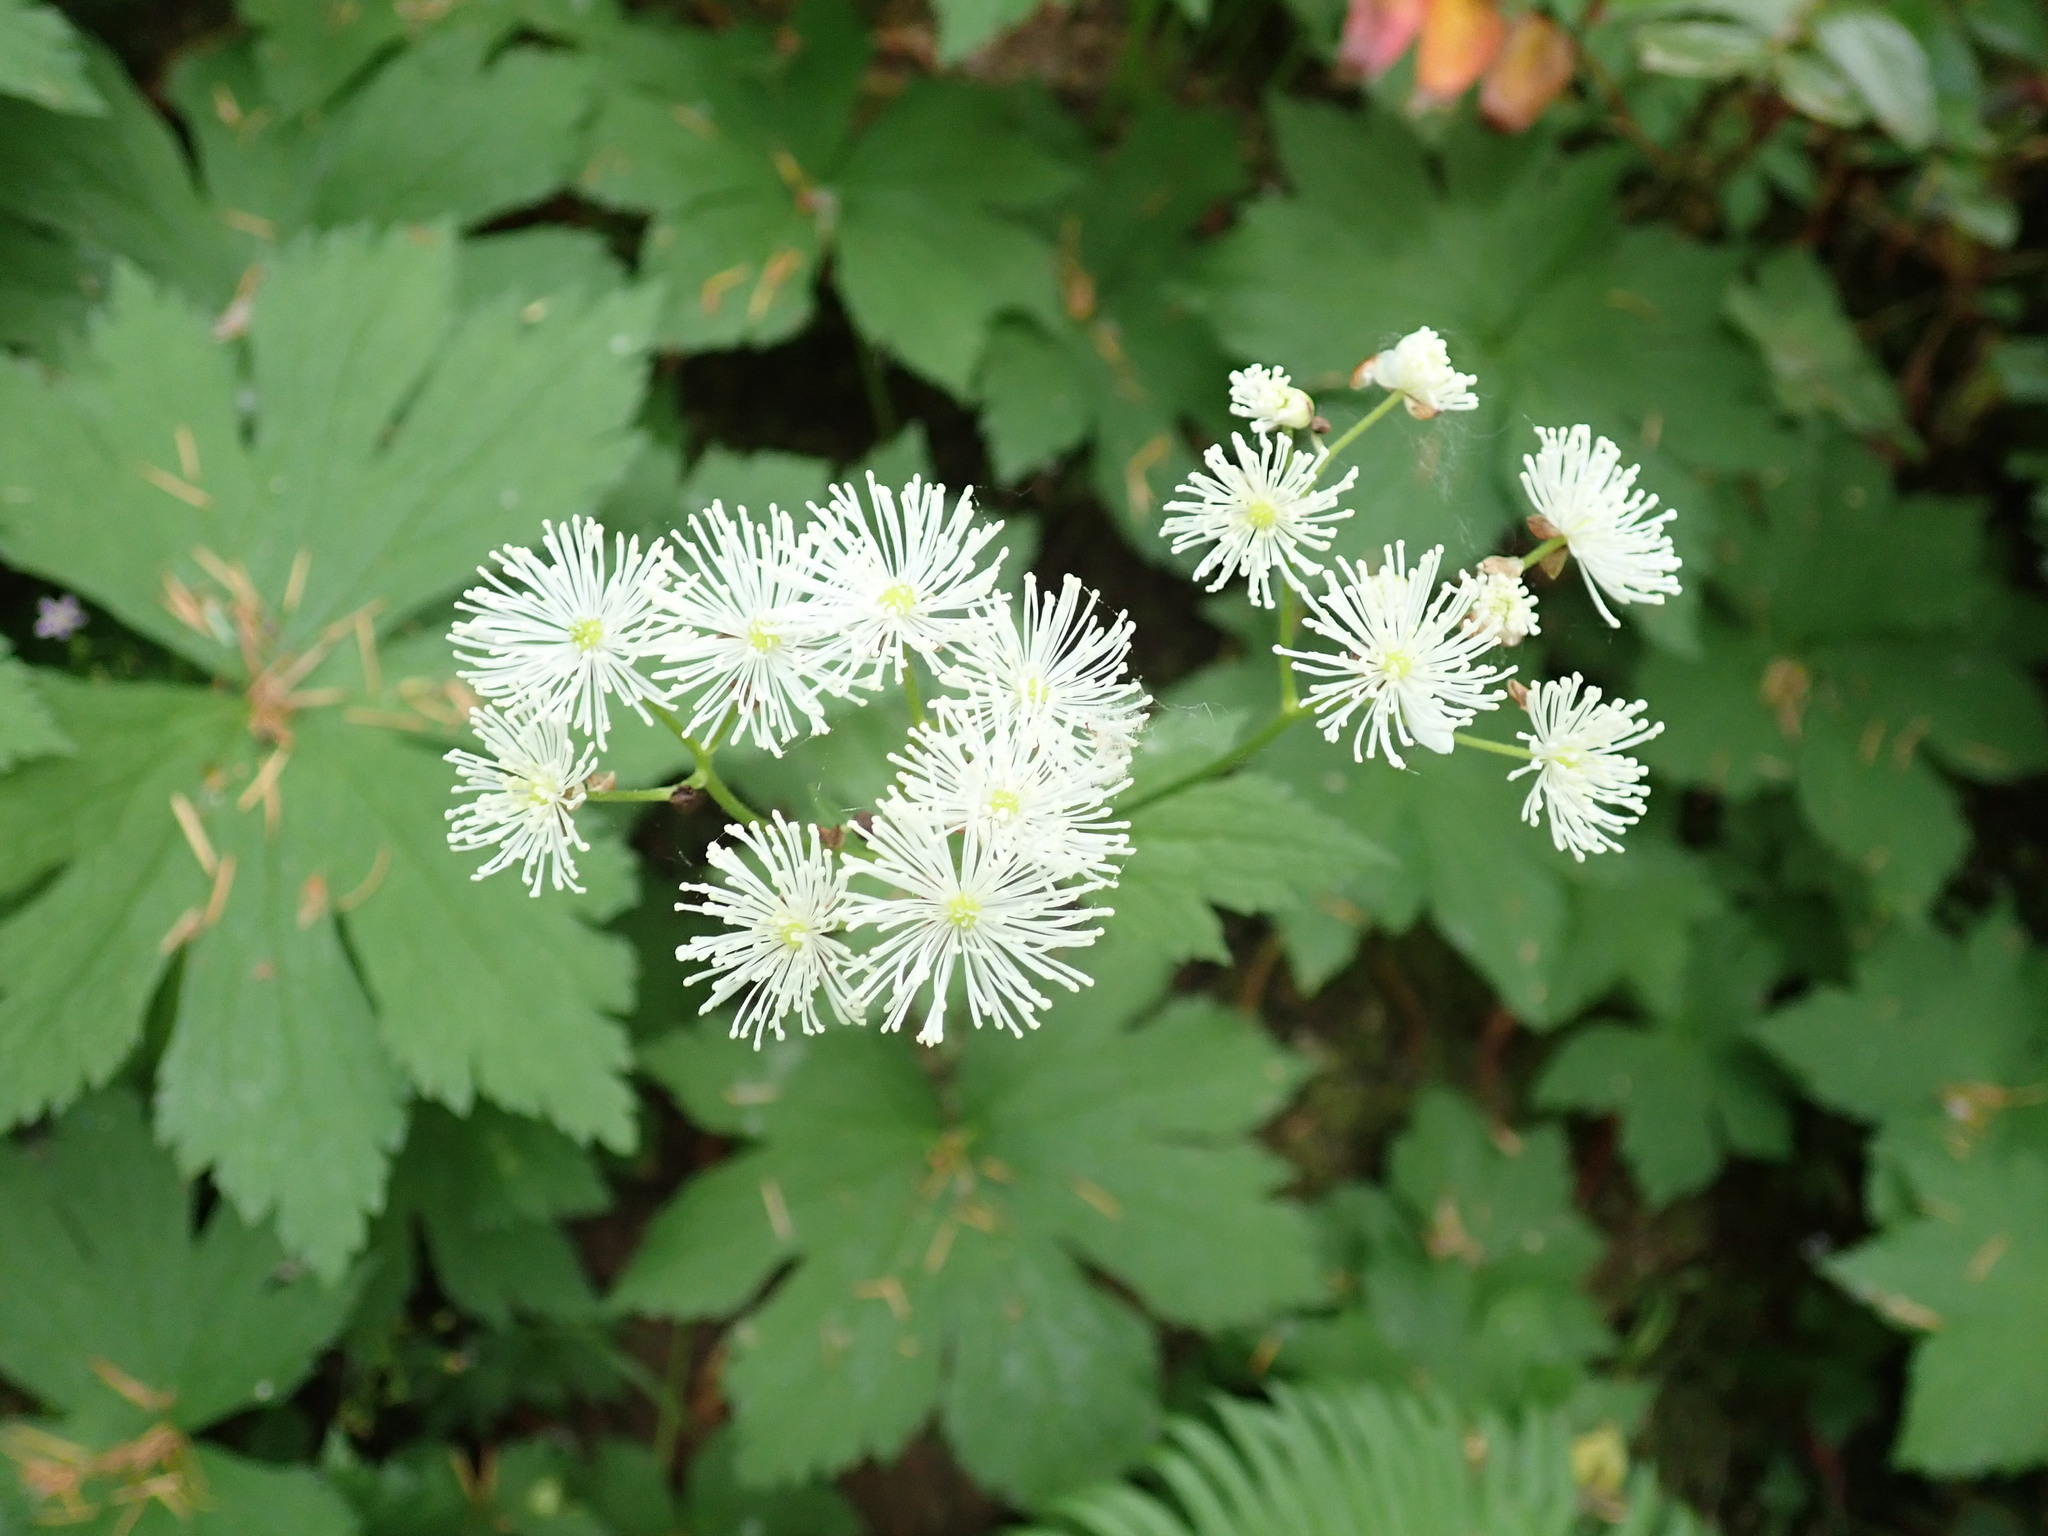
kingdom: Plantae
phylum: Tracheophyta
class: Magnoliopsida
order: Ranunculales
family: Ranunculaceae
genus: Trautvetteria
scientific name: Trautvetteria carolinensis
